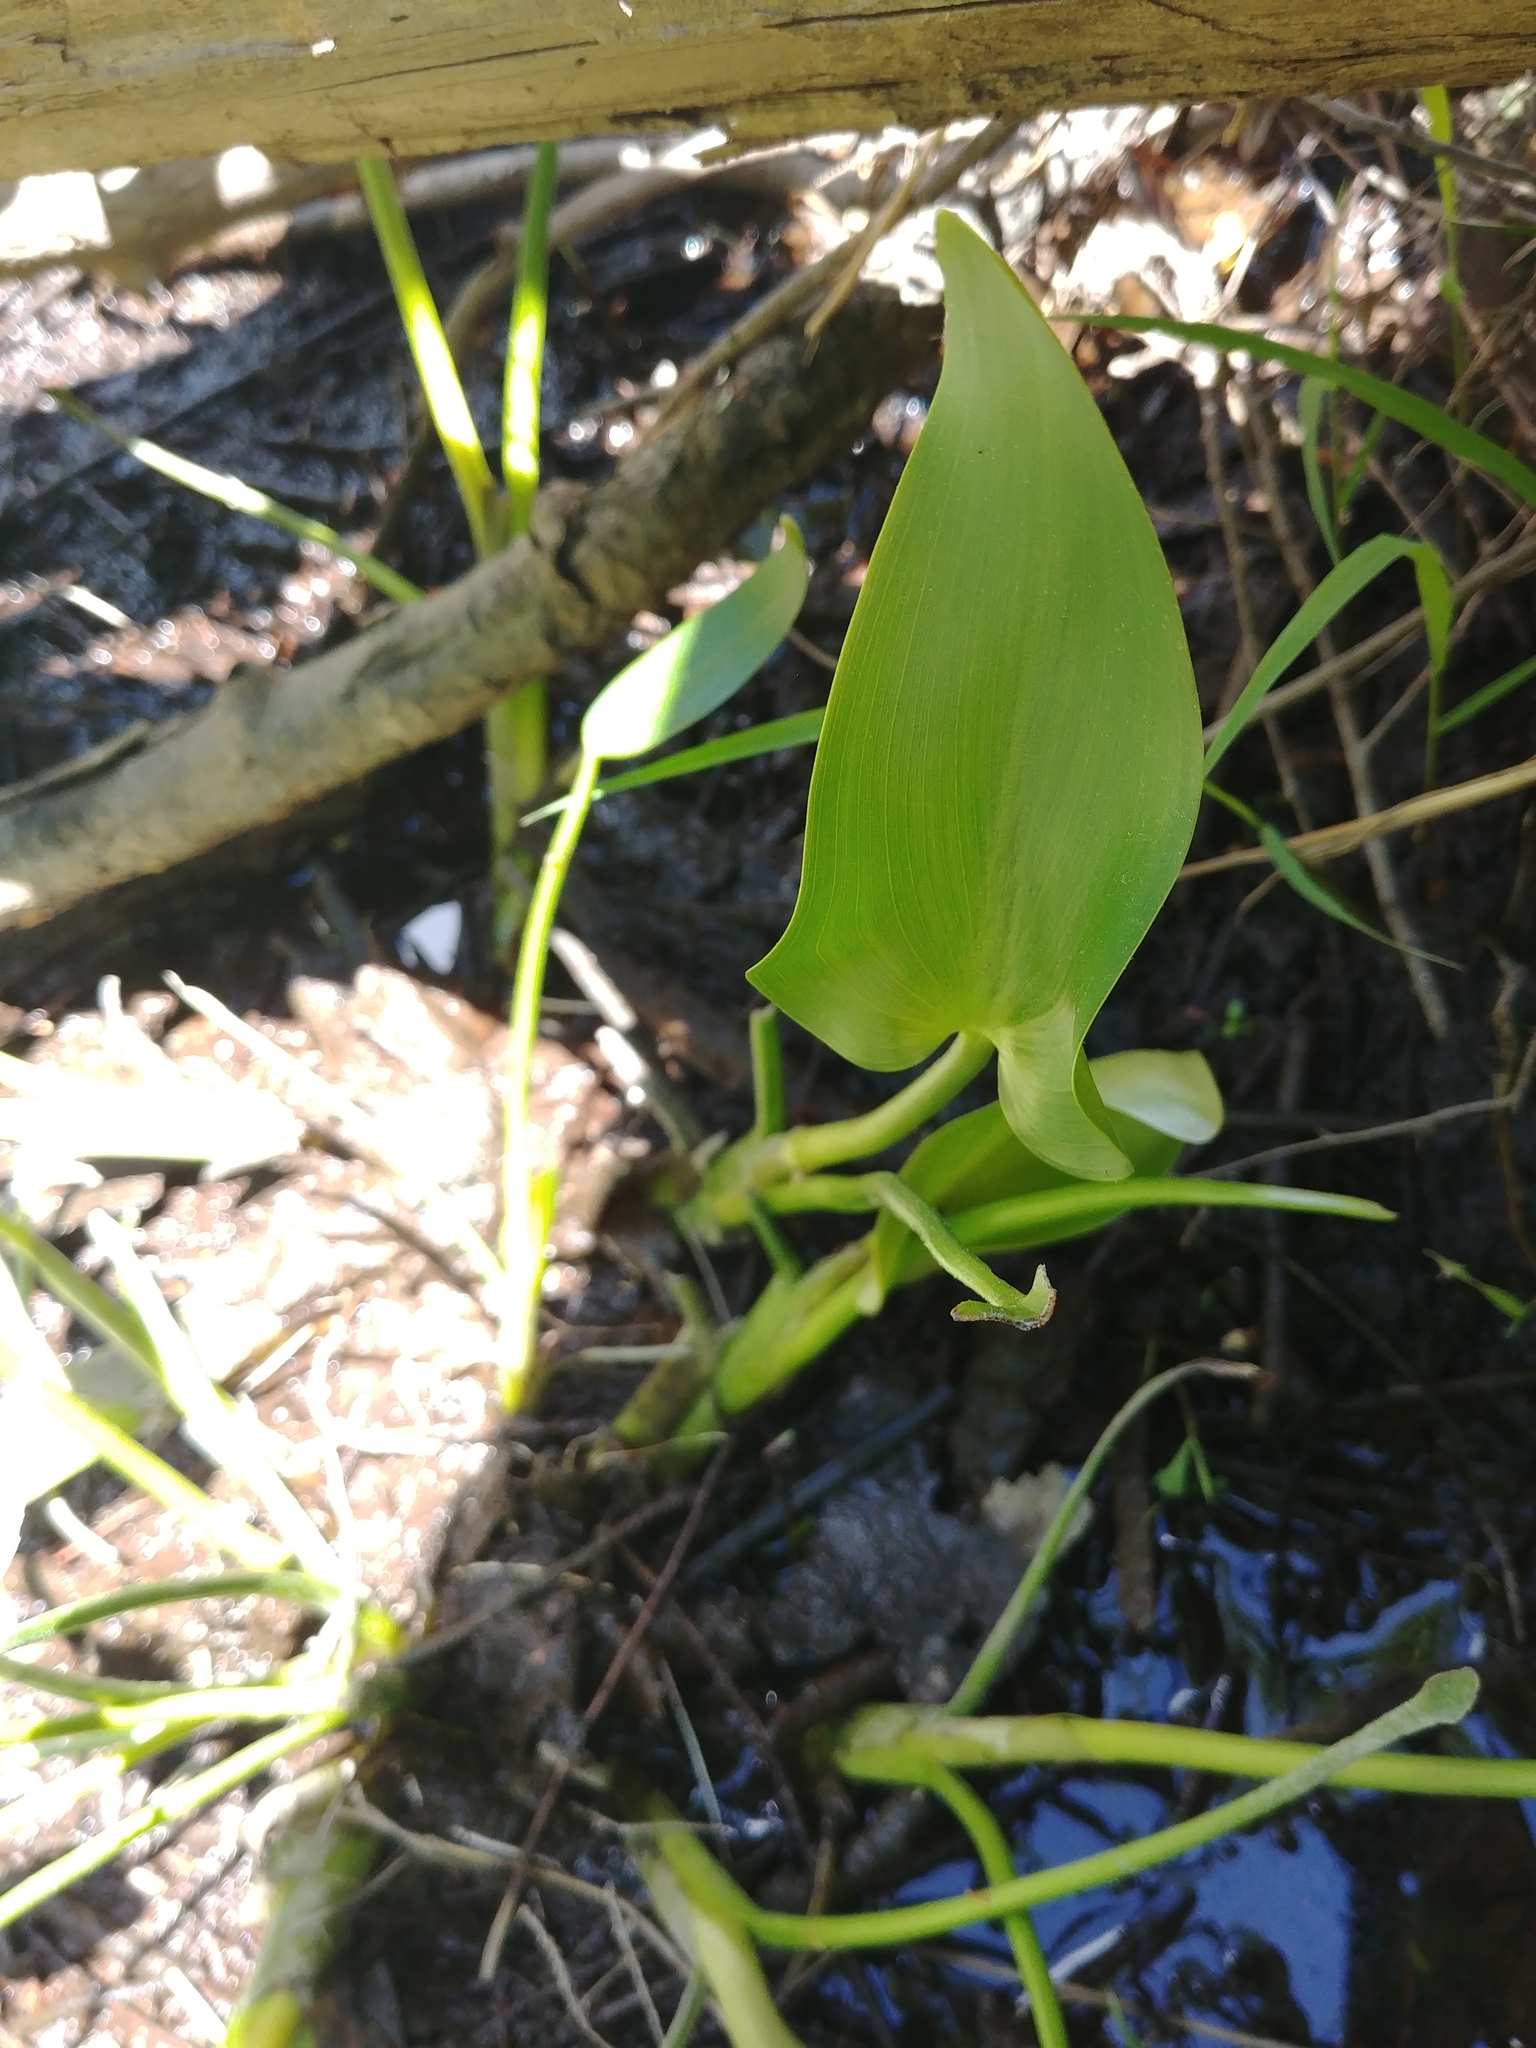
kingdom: Plantae
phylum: Tracheophyta
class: Liliopsida
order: Commelinales
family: Pontederiaceae
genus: Pontederia
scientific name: Pontederia cordata
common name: Pickerelweed
